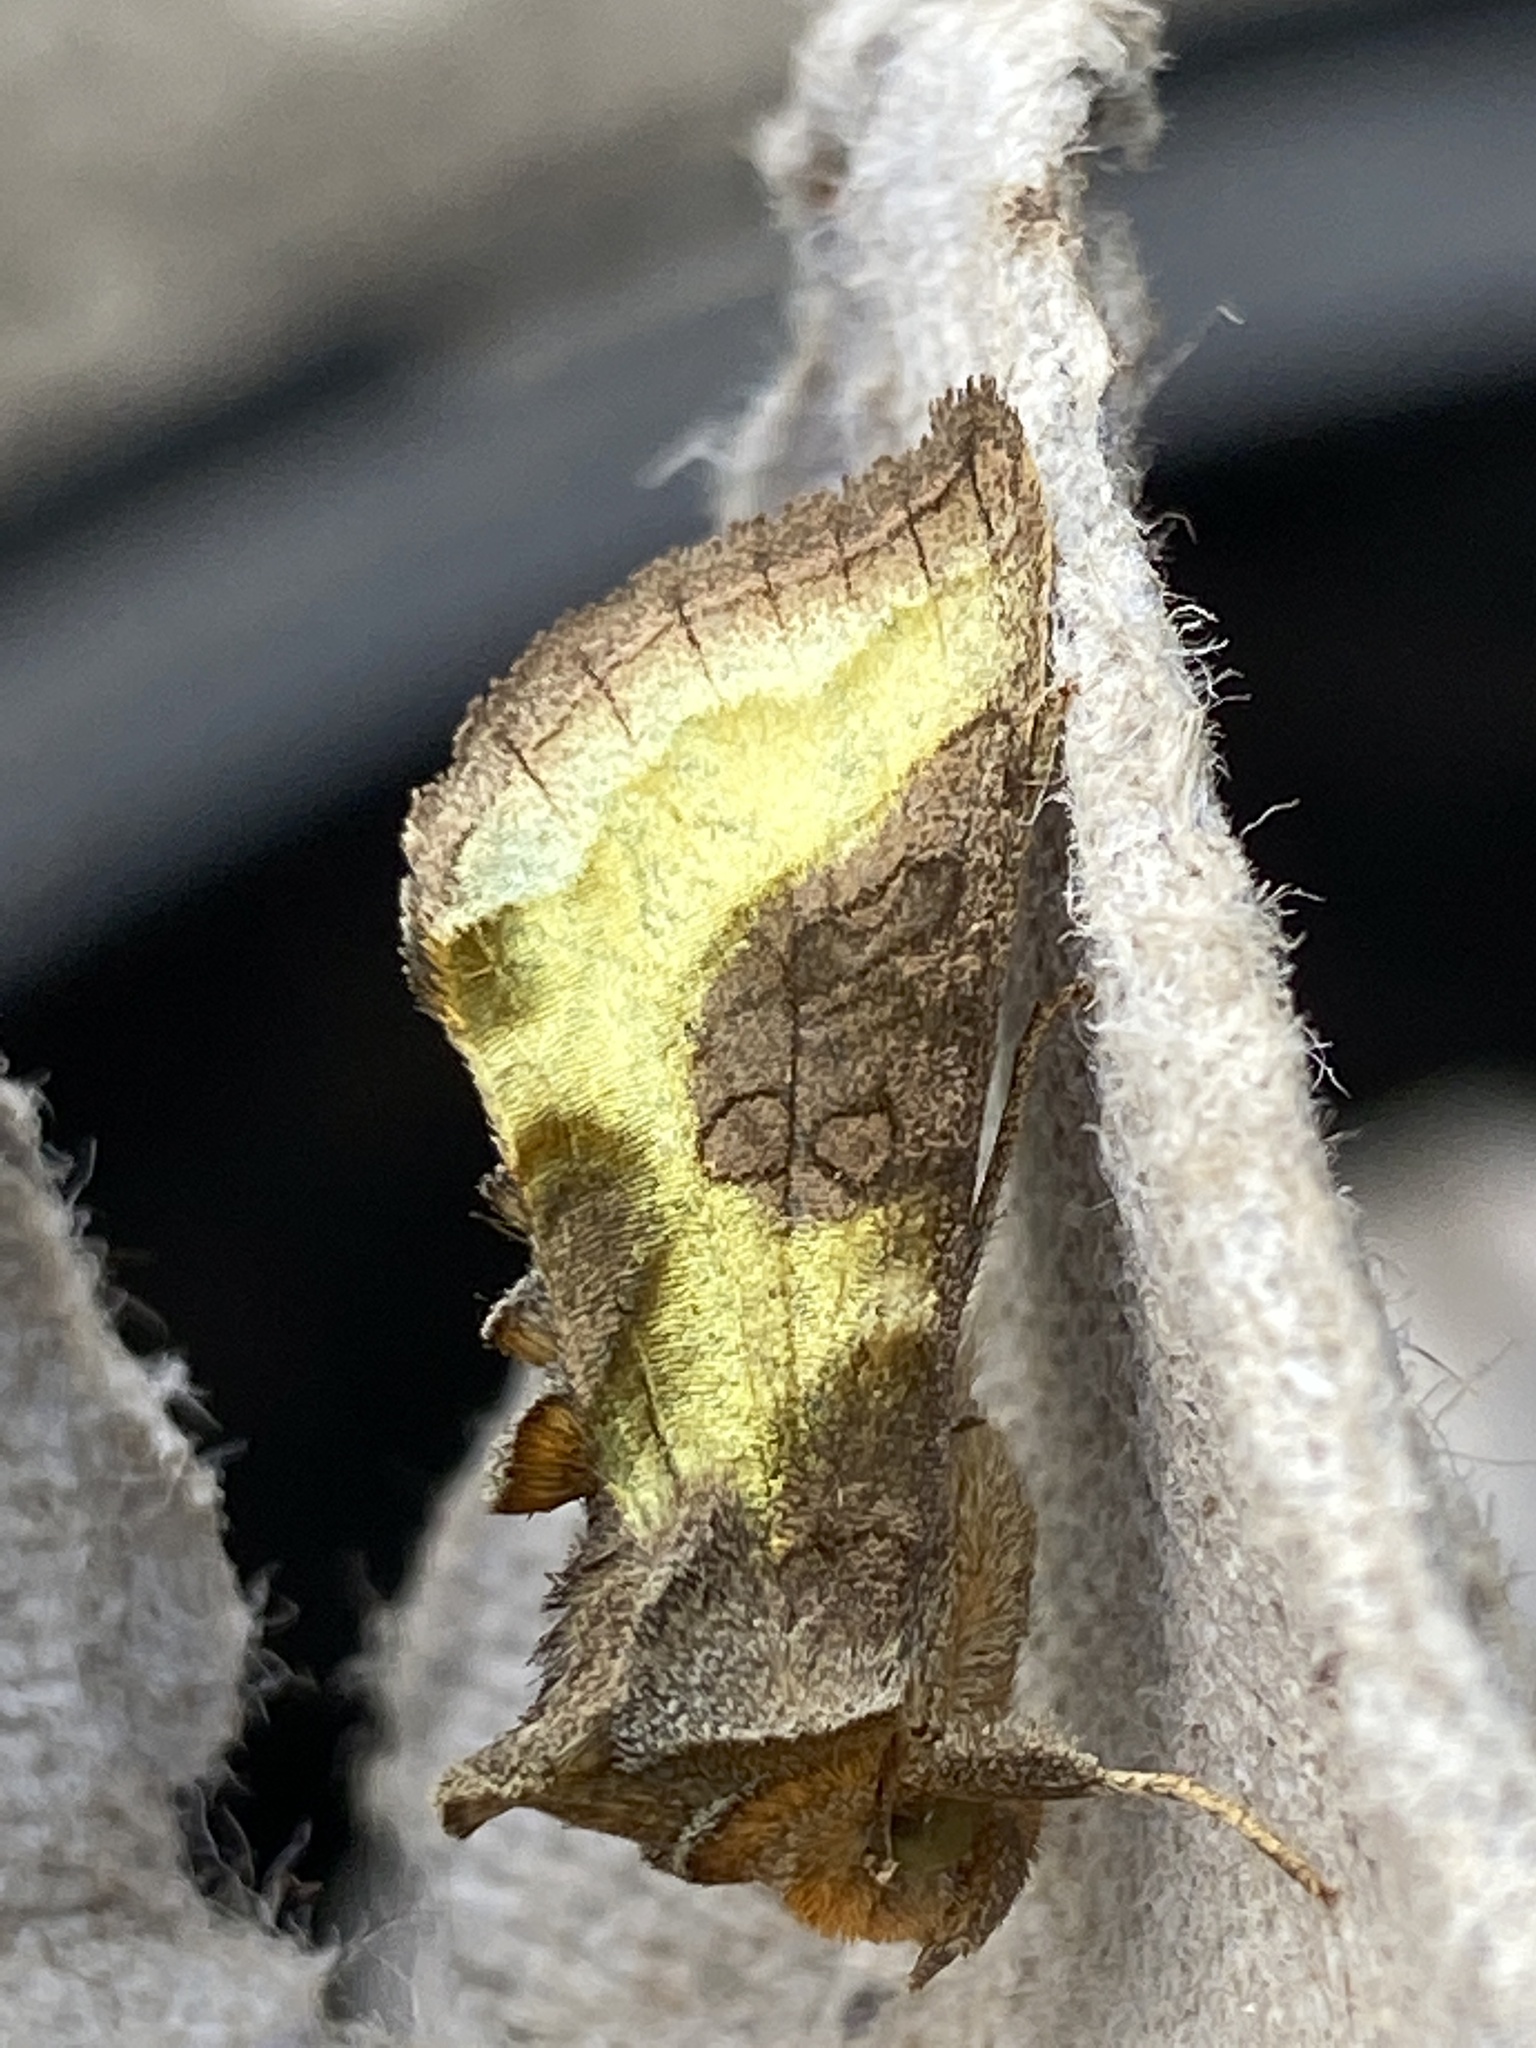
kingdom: Animalia
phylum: Arthropoda
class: Insecta
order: Lepidoptera
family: Noctuidae
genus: Diachrysia
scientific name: Diachrysia chrysitis
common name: Burnished brass
